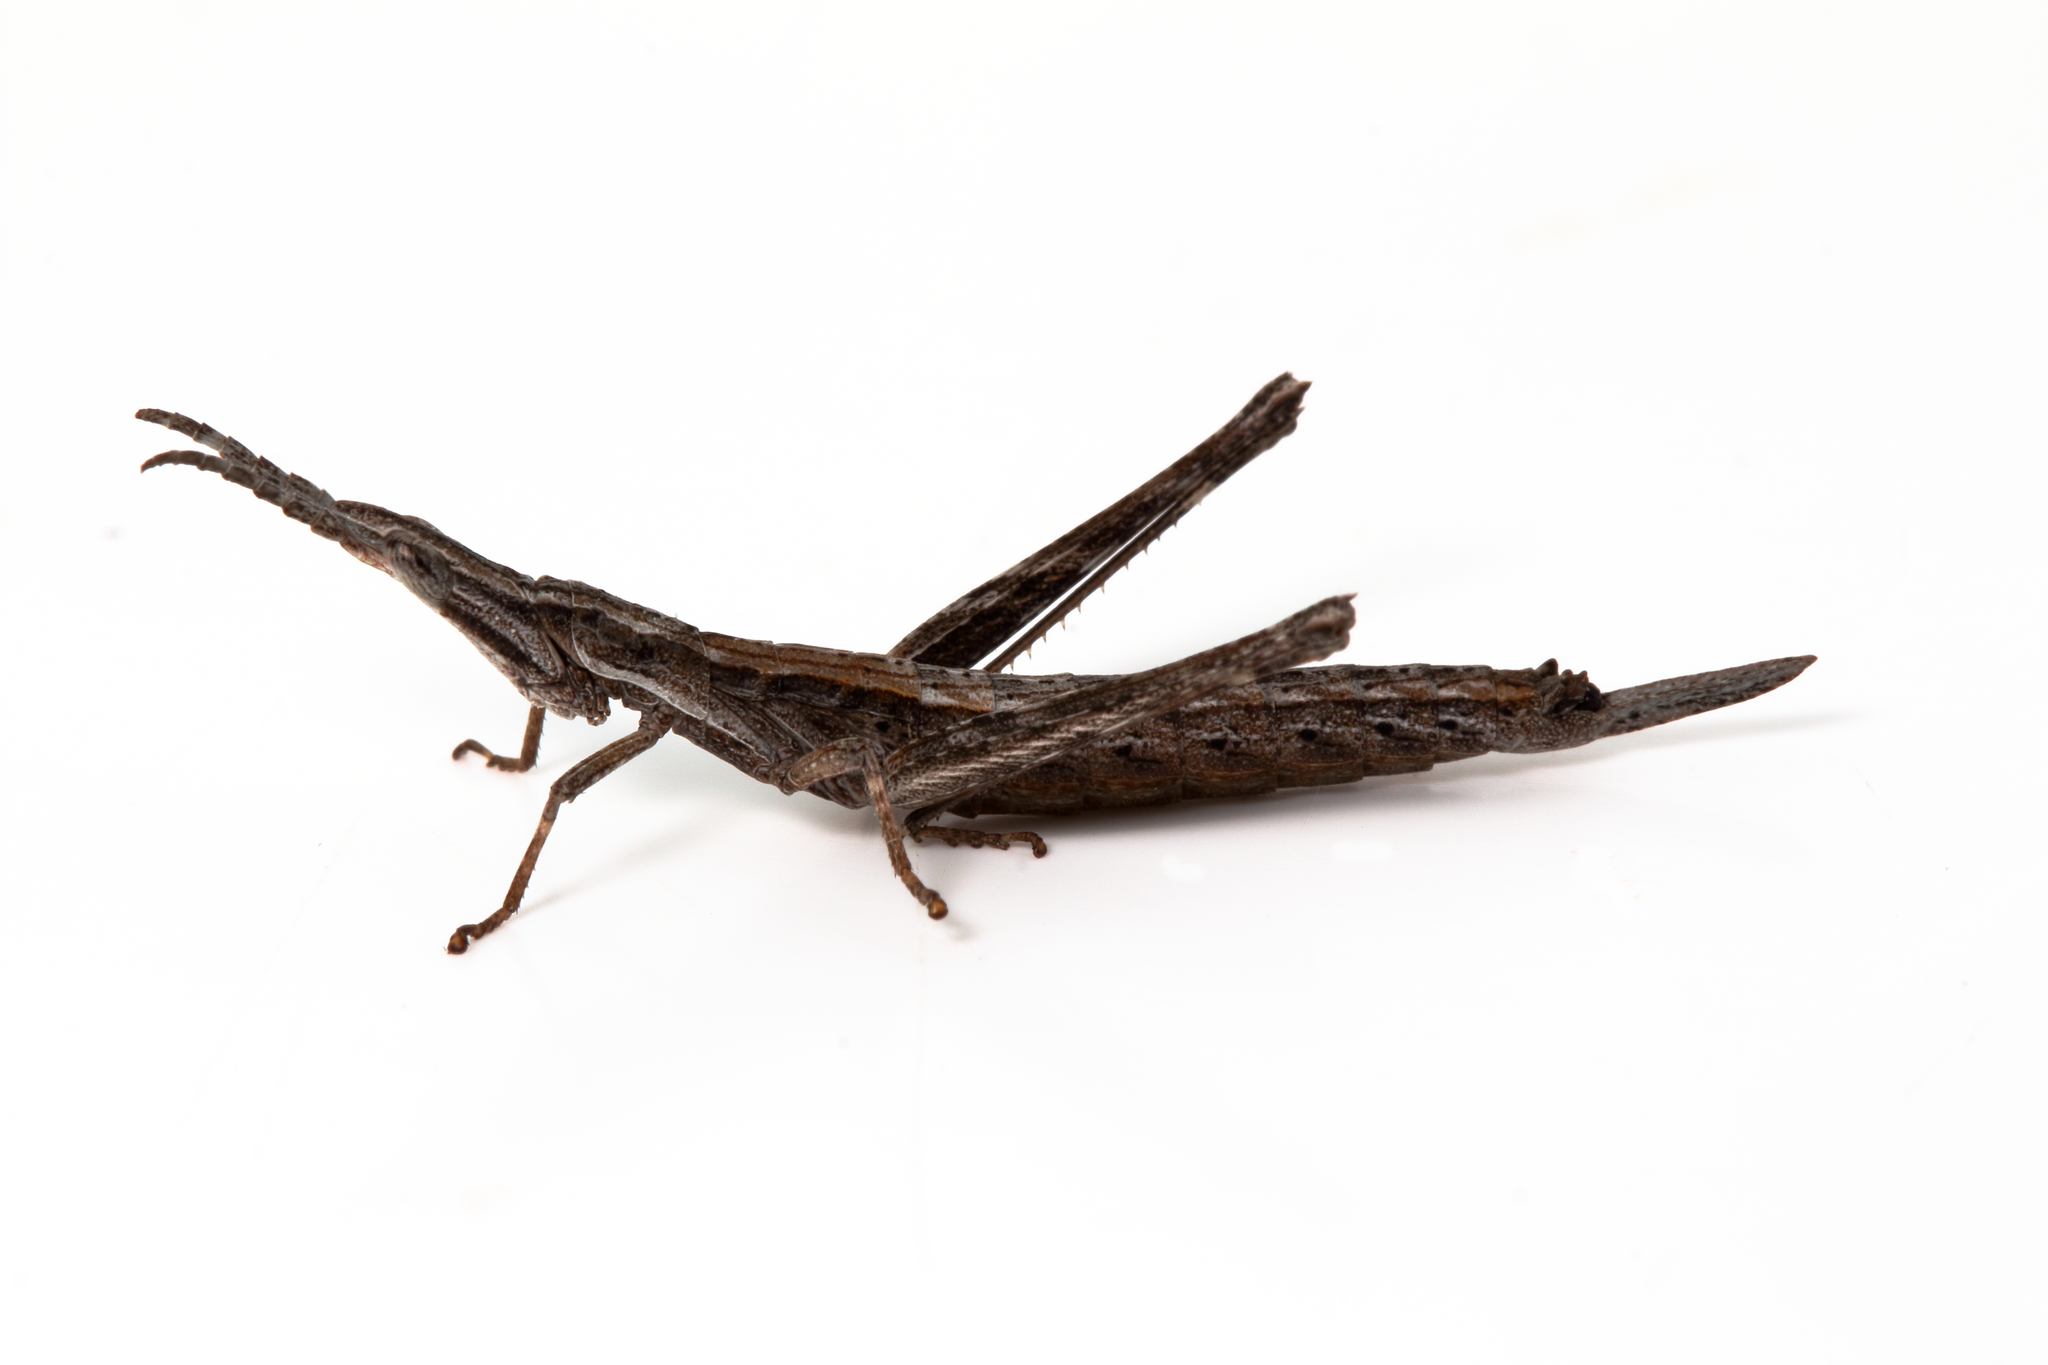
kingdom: Animalia
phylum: Arthropoda
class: Insecta
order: Orthoptera
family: Morabidae
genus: Vandiemenella
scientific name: Vandiemenella viatica
